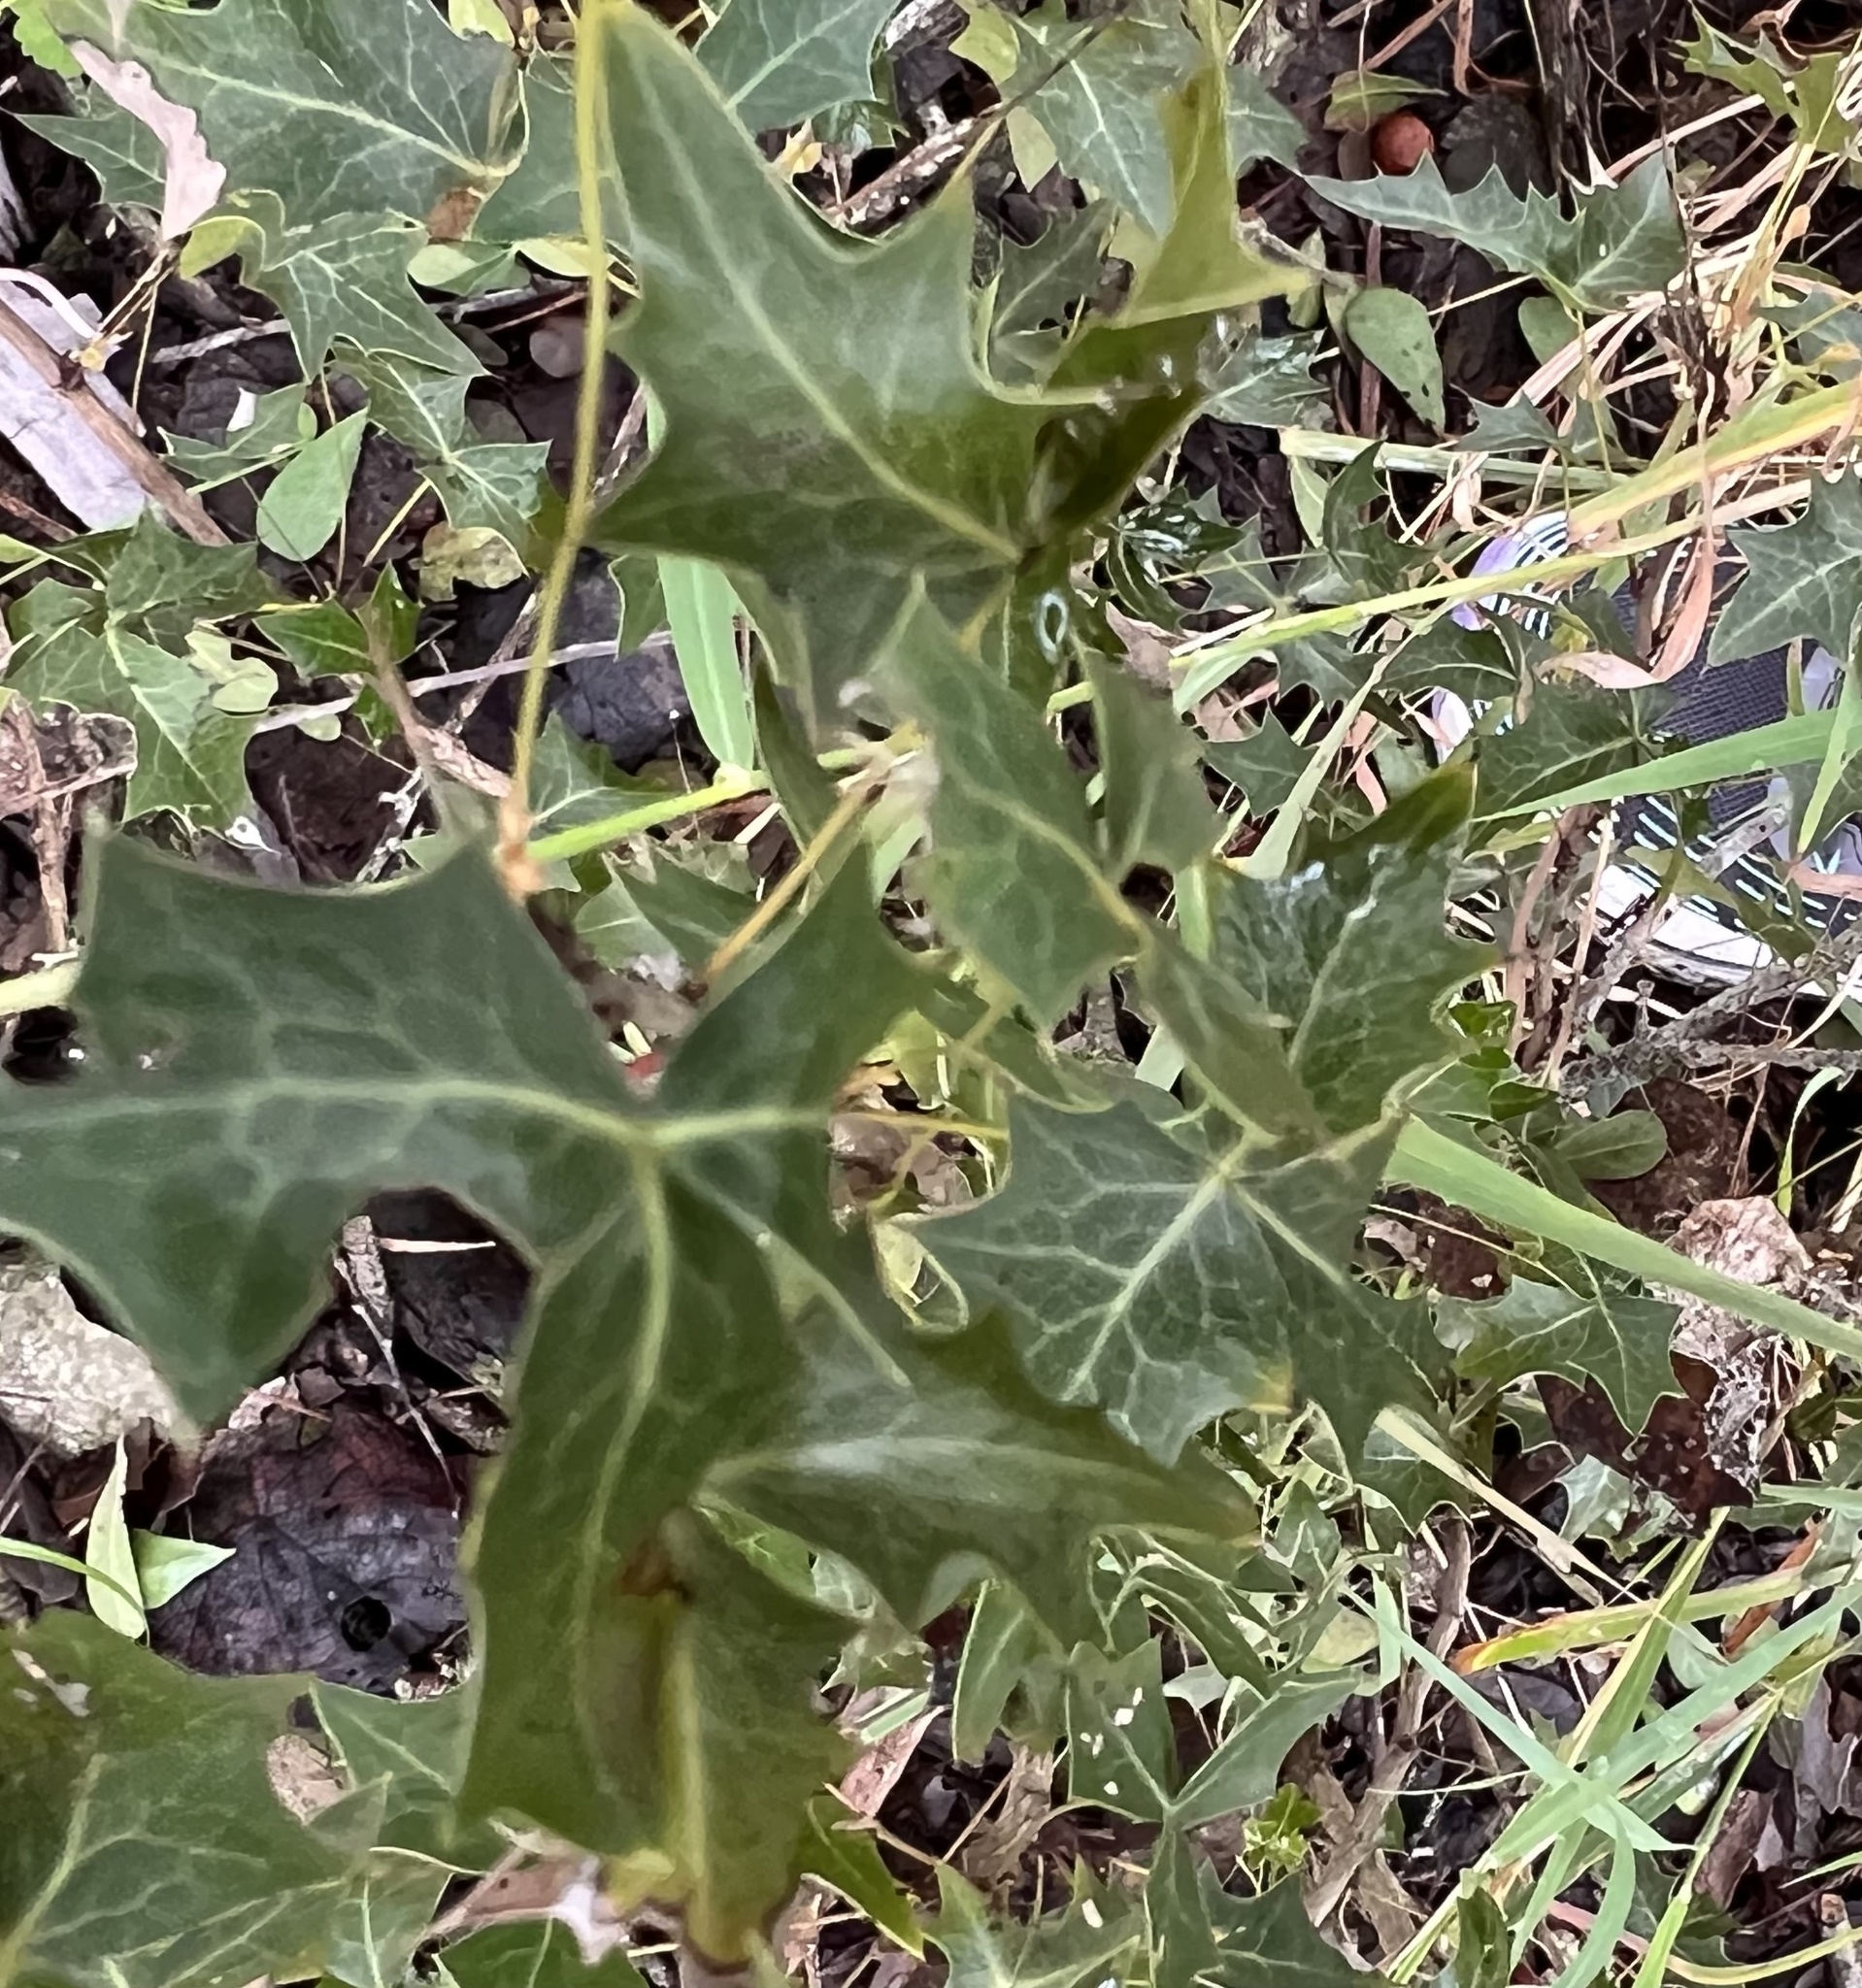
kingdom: Plantae
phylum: Tracheophyta
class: Magnoliopsida
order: Ranunculales
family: Berberidaceae
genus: Alloberberis
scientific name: Alloberberis trifoliolata
